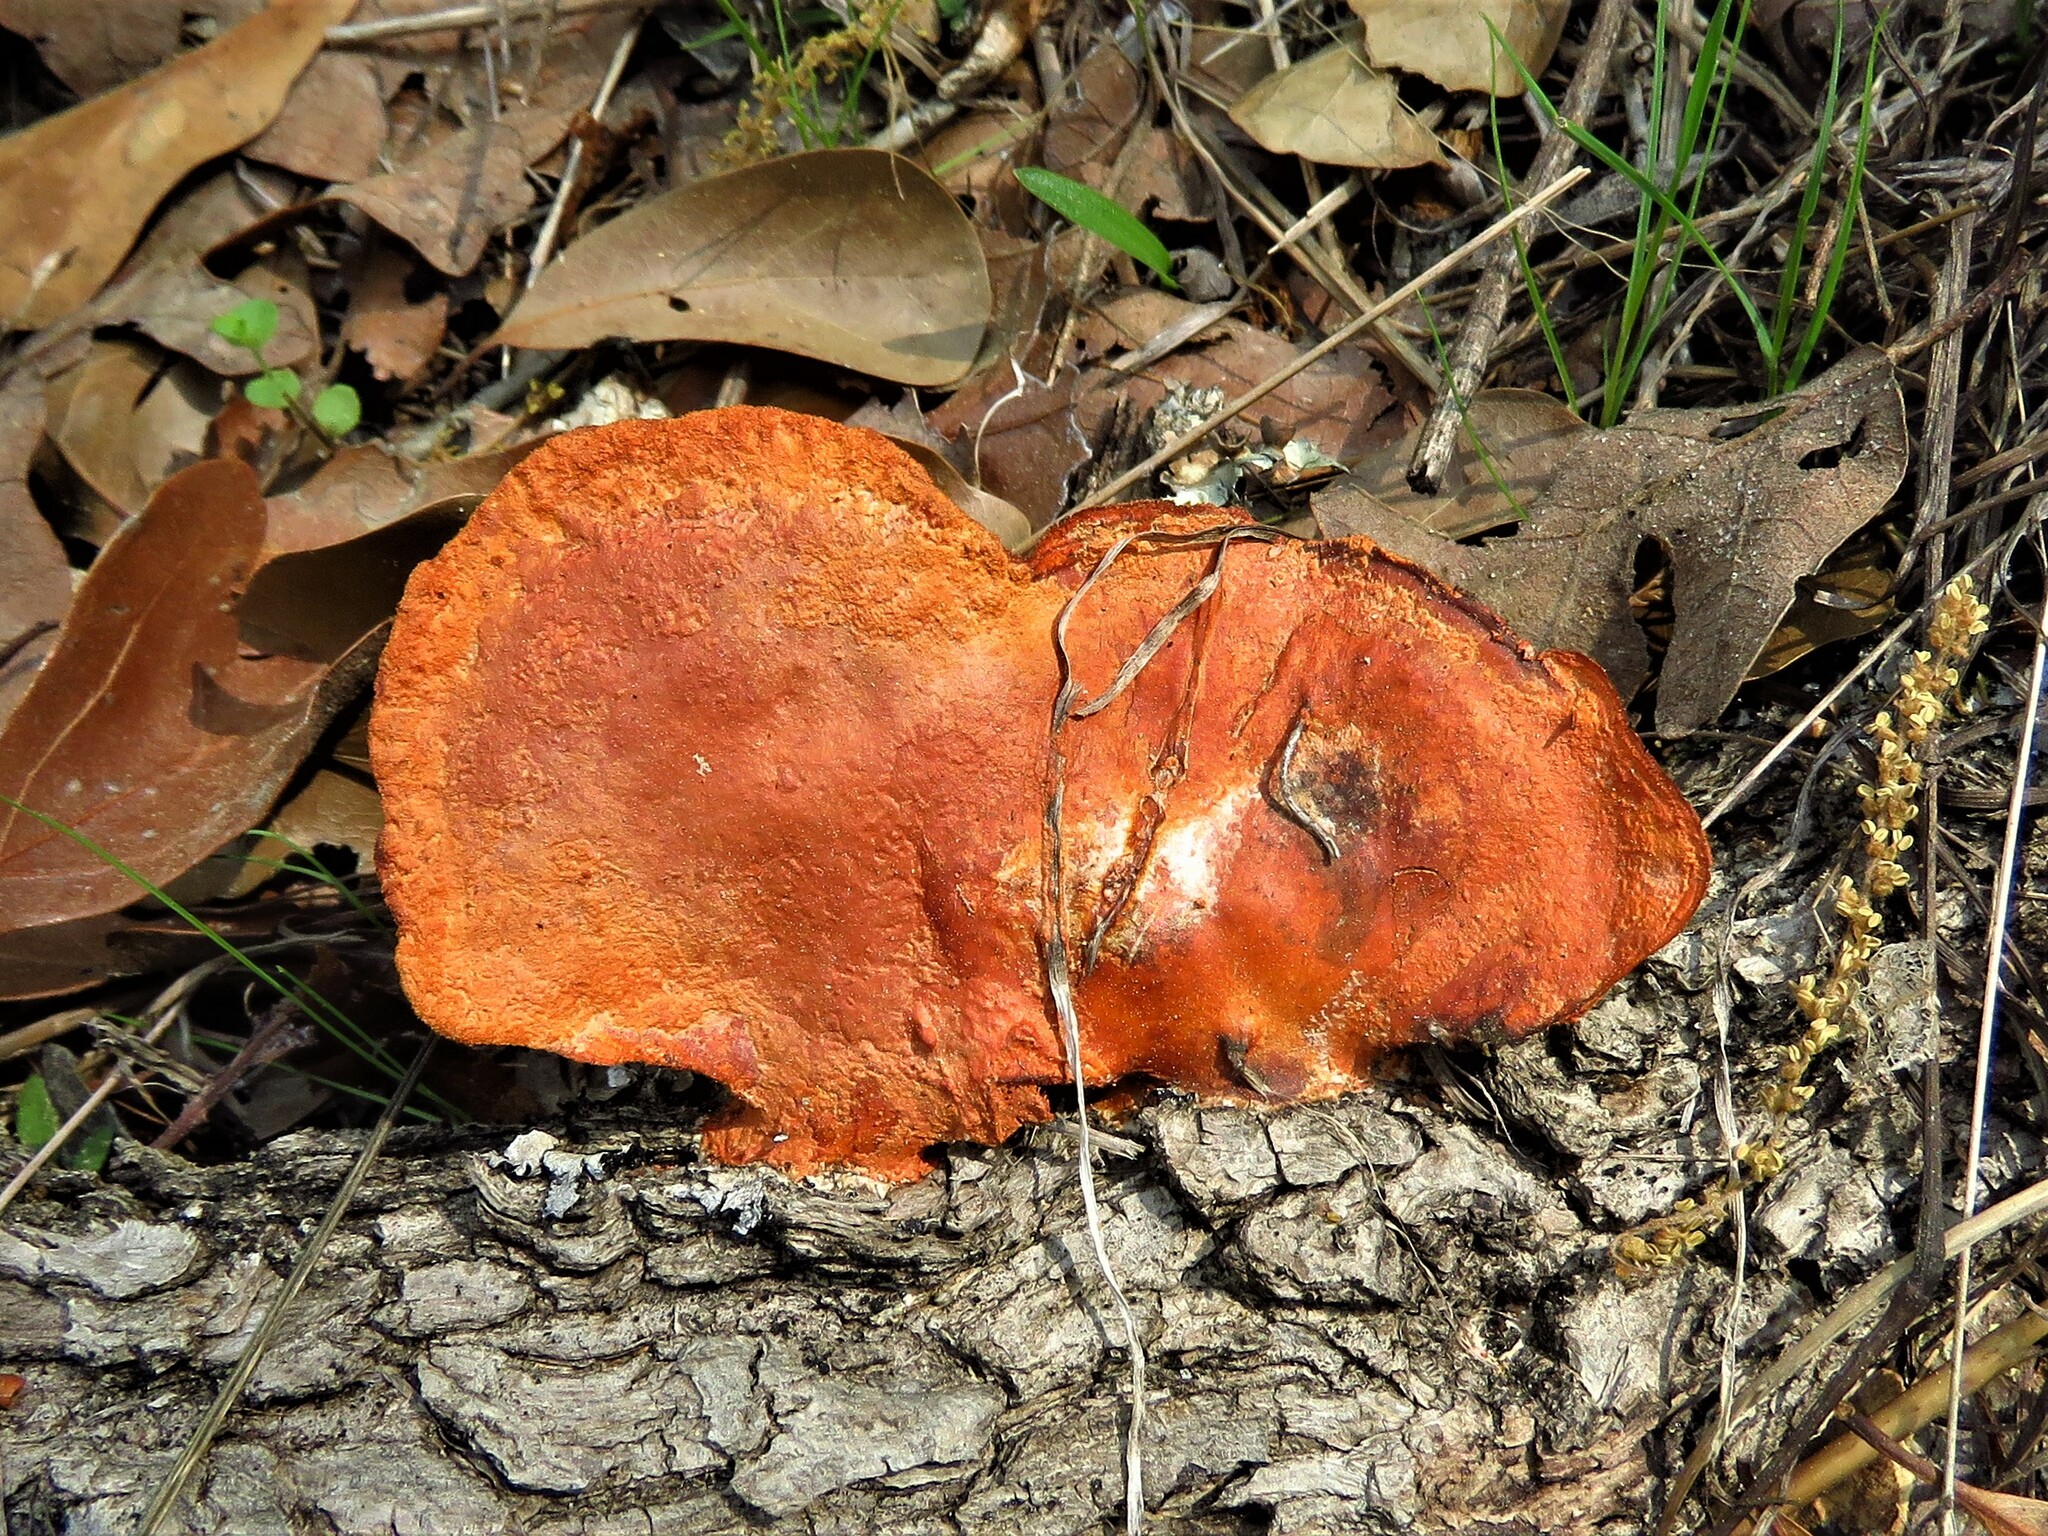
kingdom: Fungi
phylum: Basidiomycota
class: Agaricomycetes
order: Polyporales
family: Polyporaceae
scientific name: Polyporaceae
